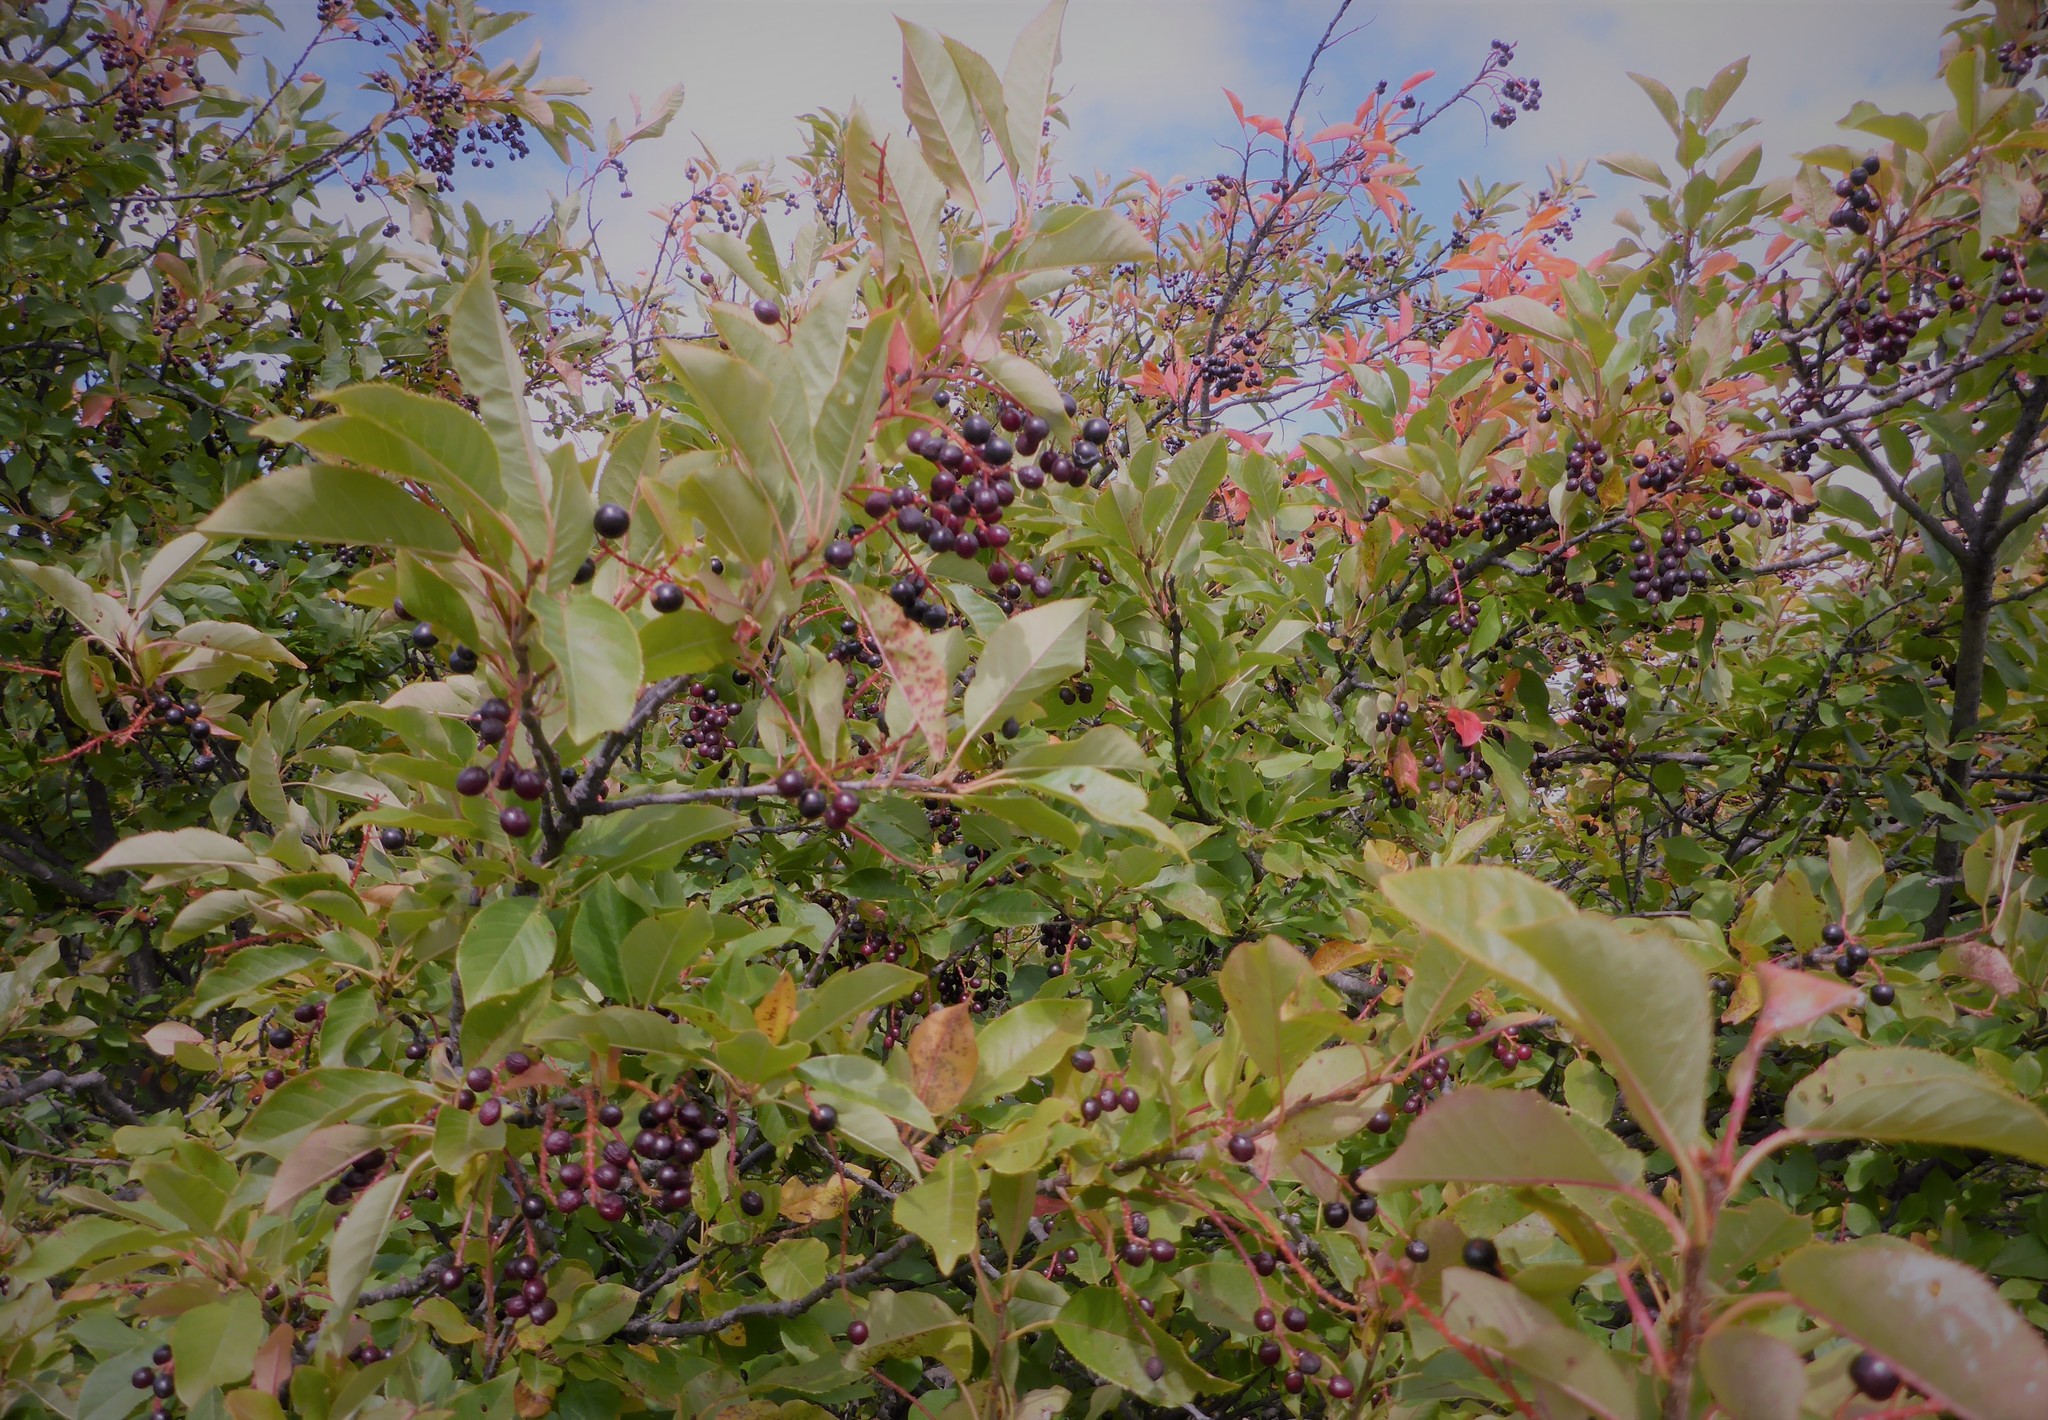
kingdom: Plantae
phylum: Tracheophyta
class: Magnoliopsida
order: Rosales
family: Rosaceae
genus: Prunus
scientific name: Prunus virginiana
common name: Chokecherry
